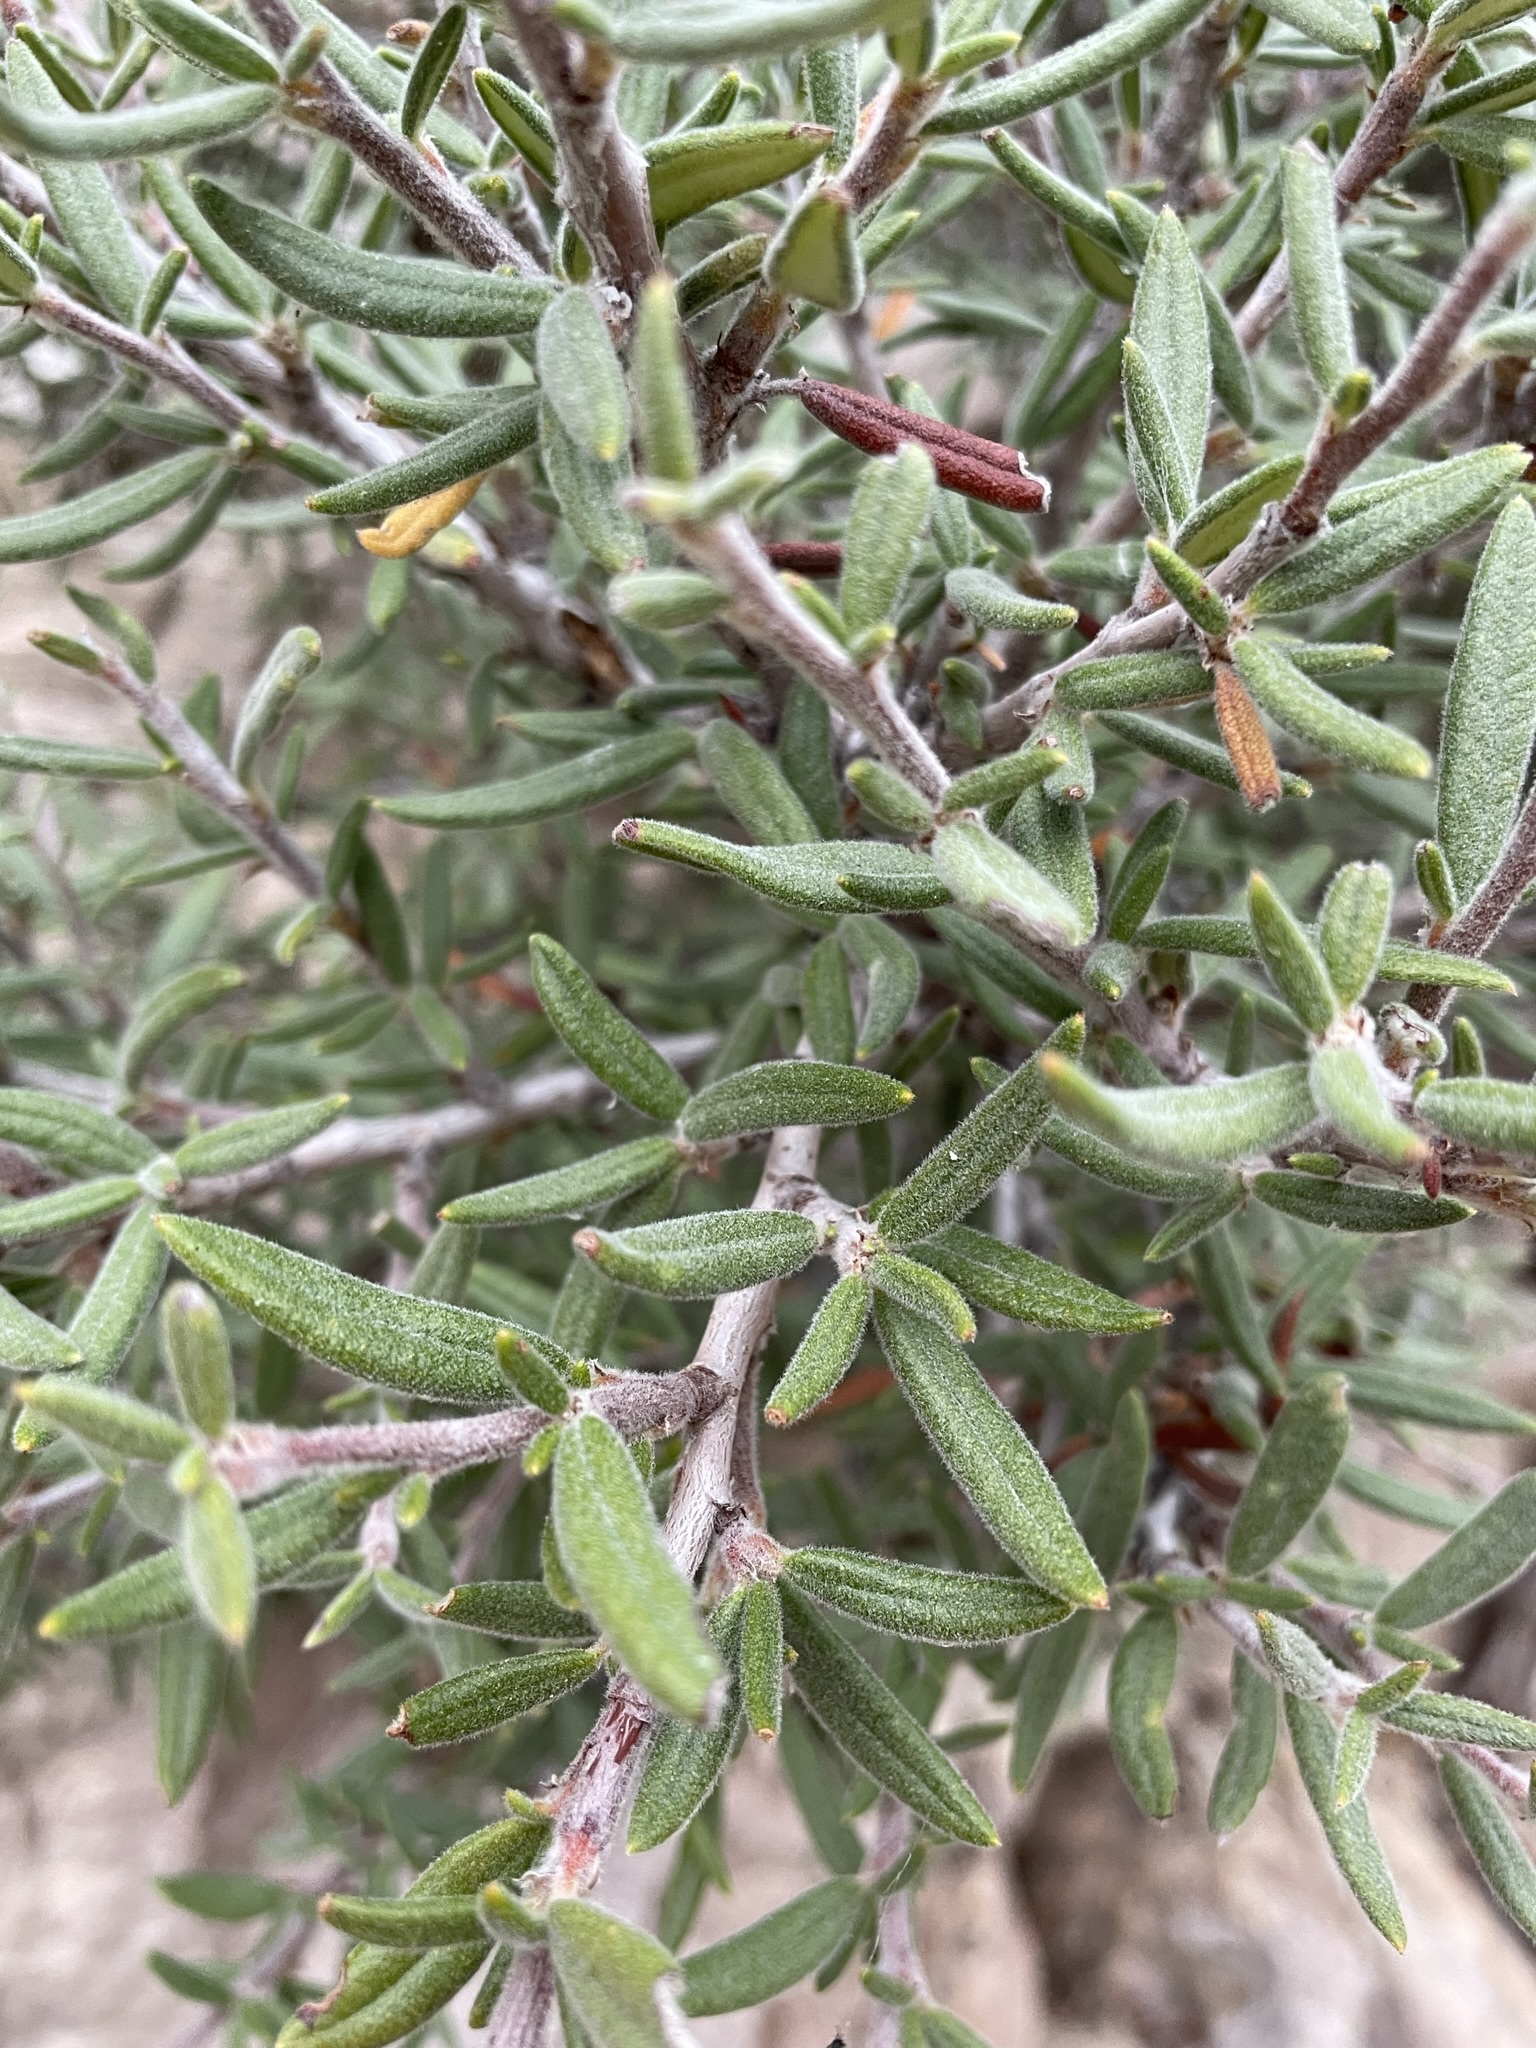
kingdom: Plantae
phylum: Tracheophyta
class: Magnoliopsida
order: Rosales
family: Rosaceae
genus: Cercocarpus
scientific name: Cercocarpus ledifolius
